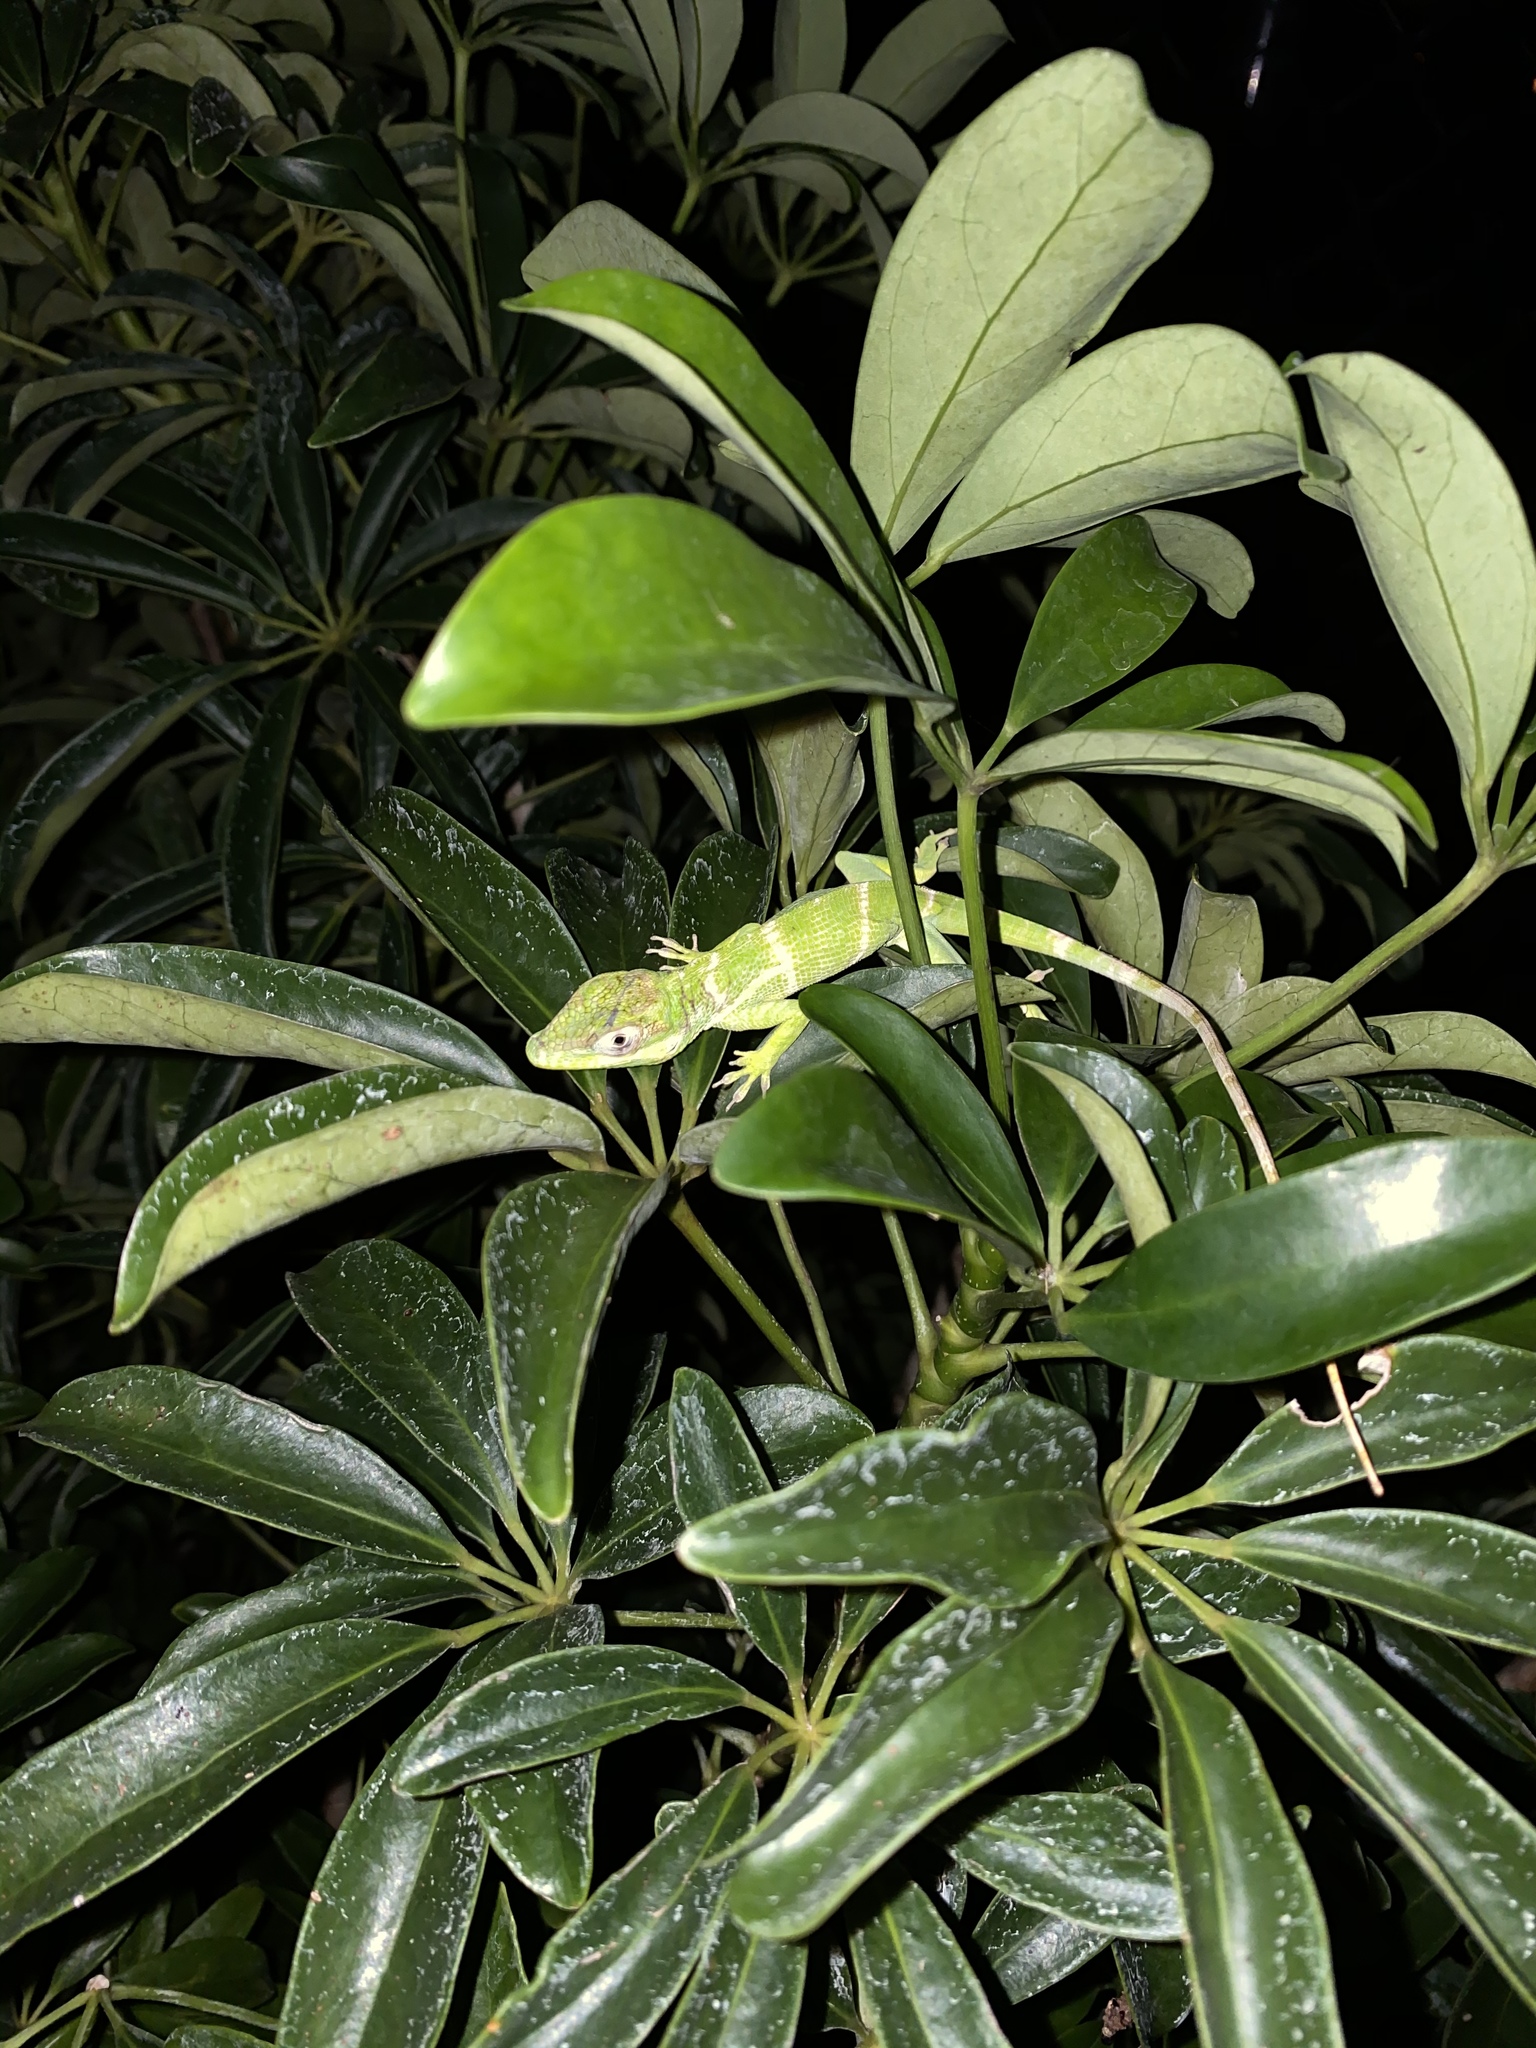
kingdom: Animalia
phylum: Chordata
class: Squamata
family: Dactyloidae
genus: Anolis
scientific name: Anolis equestris
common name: Knight anole
